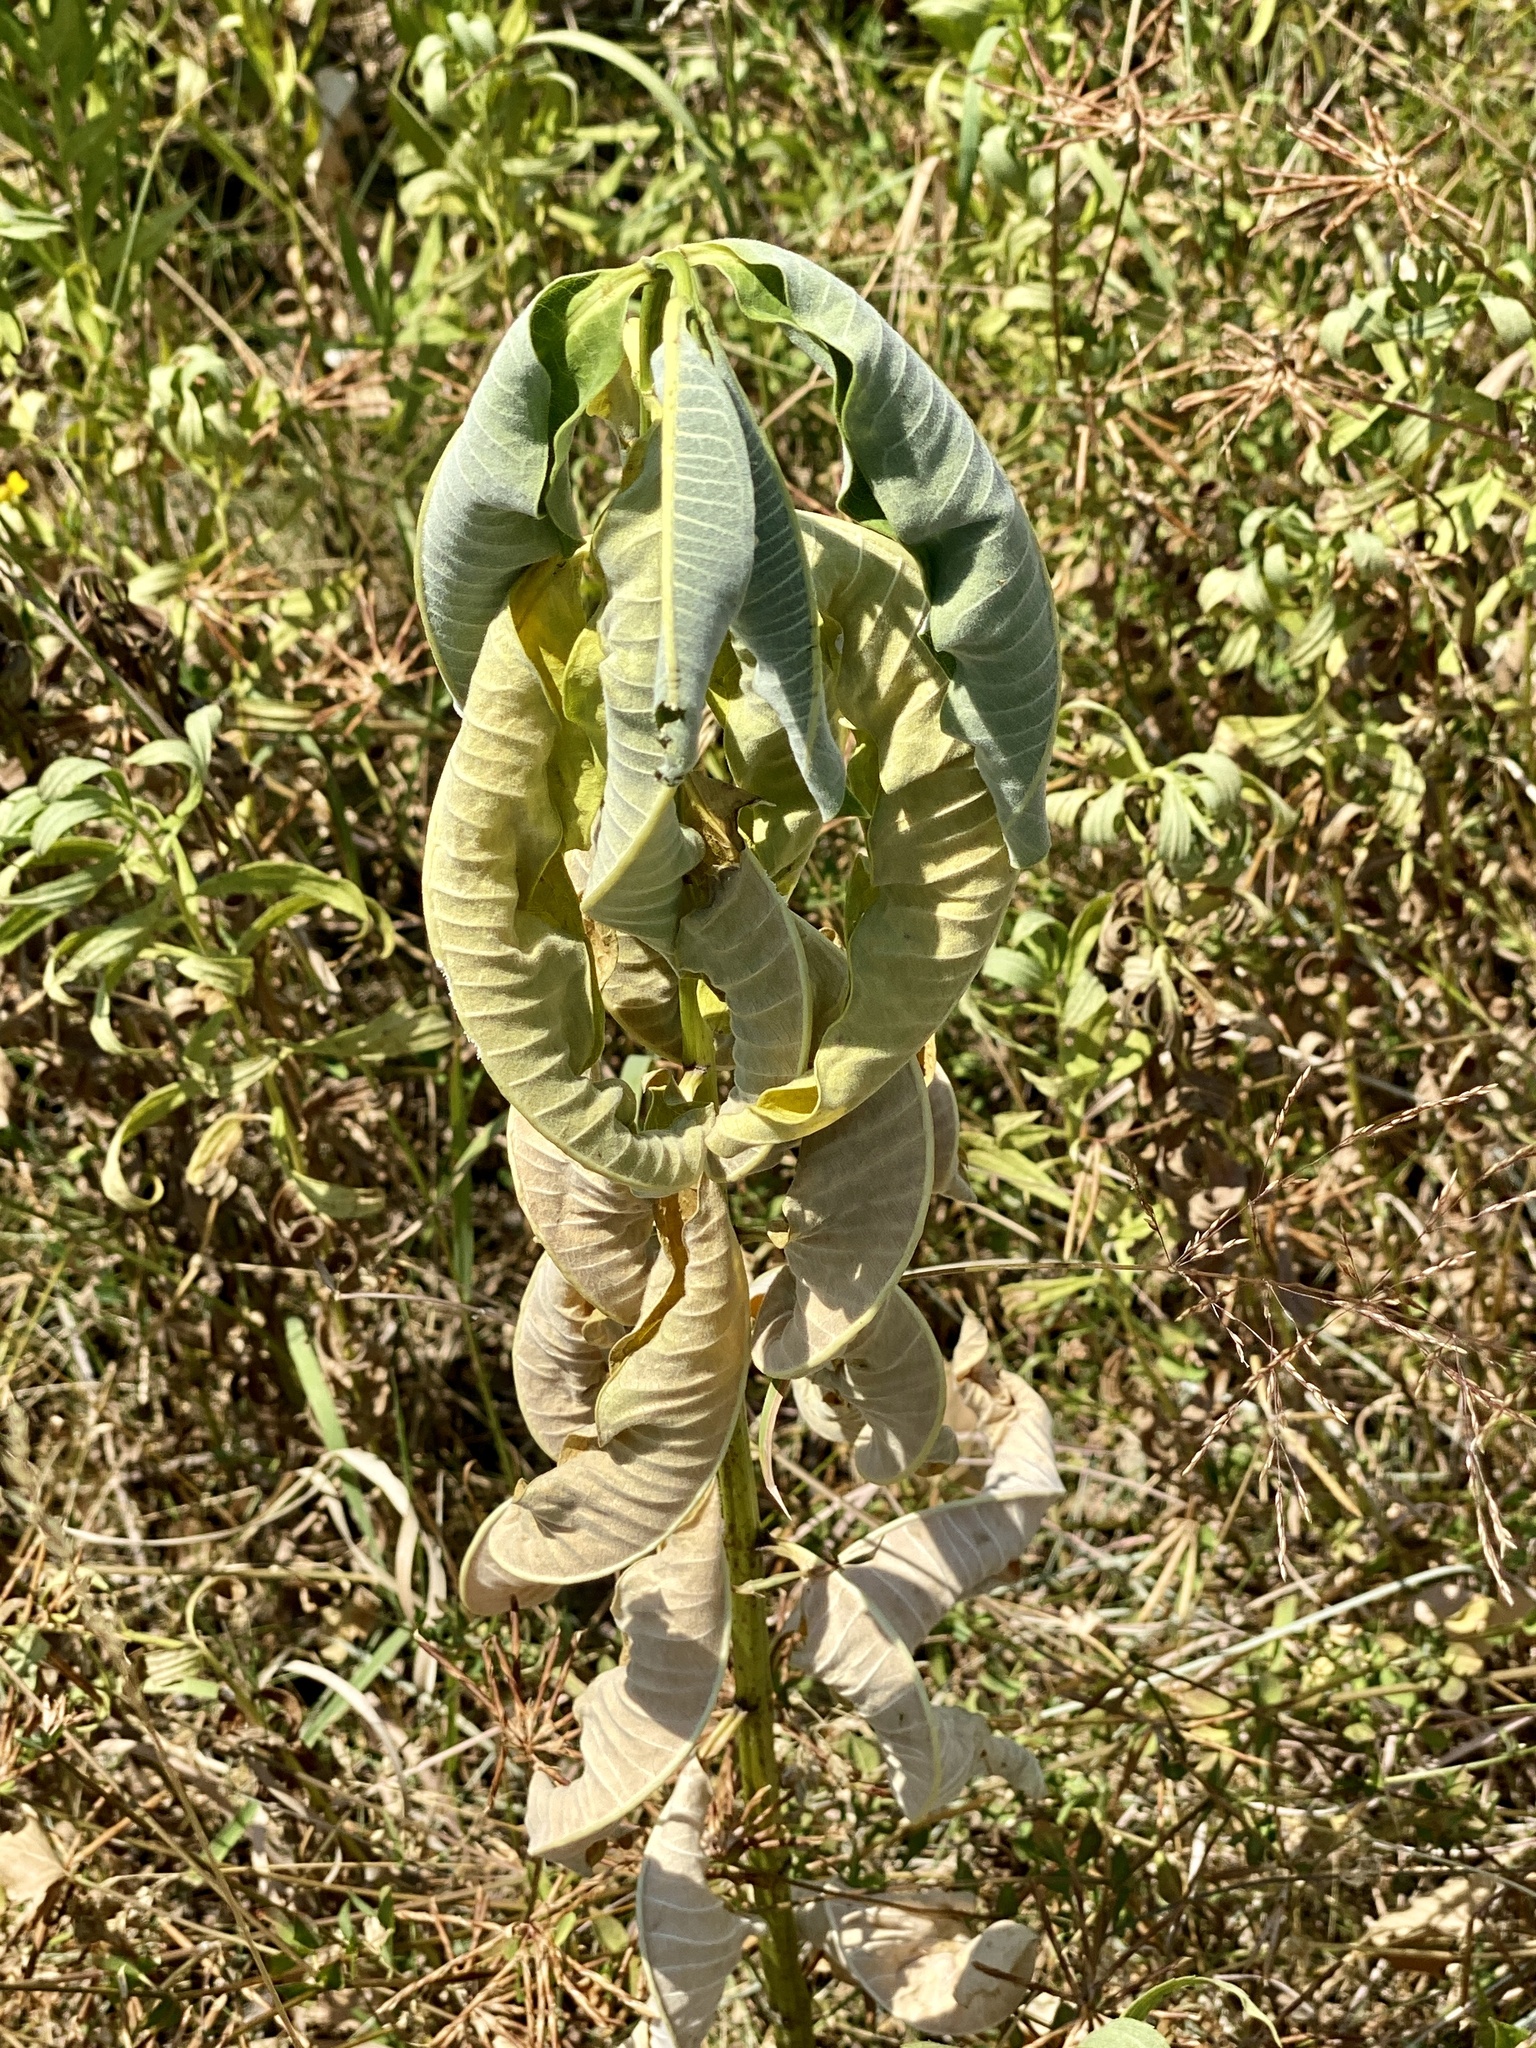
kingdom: Plantae
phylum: Tracheophyta
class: Magnoliopsida
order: Gentianales
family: Apocynaceae
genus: Asclepias
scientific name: Asclepias syriaca
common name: Common milkweed
